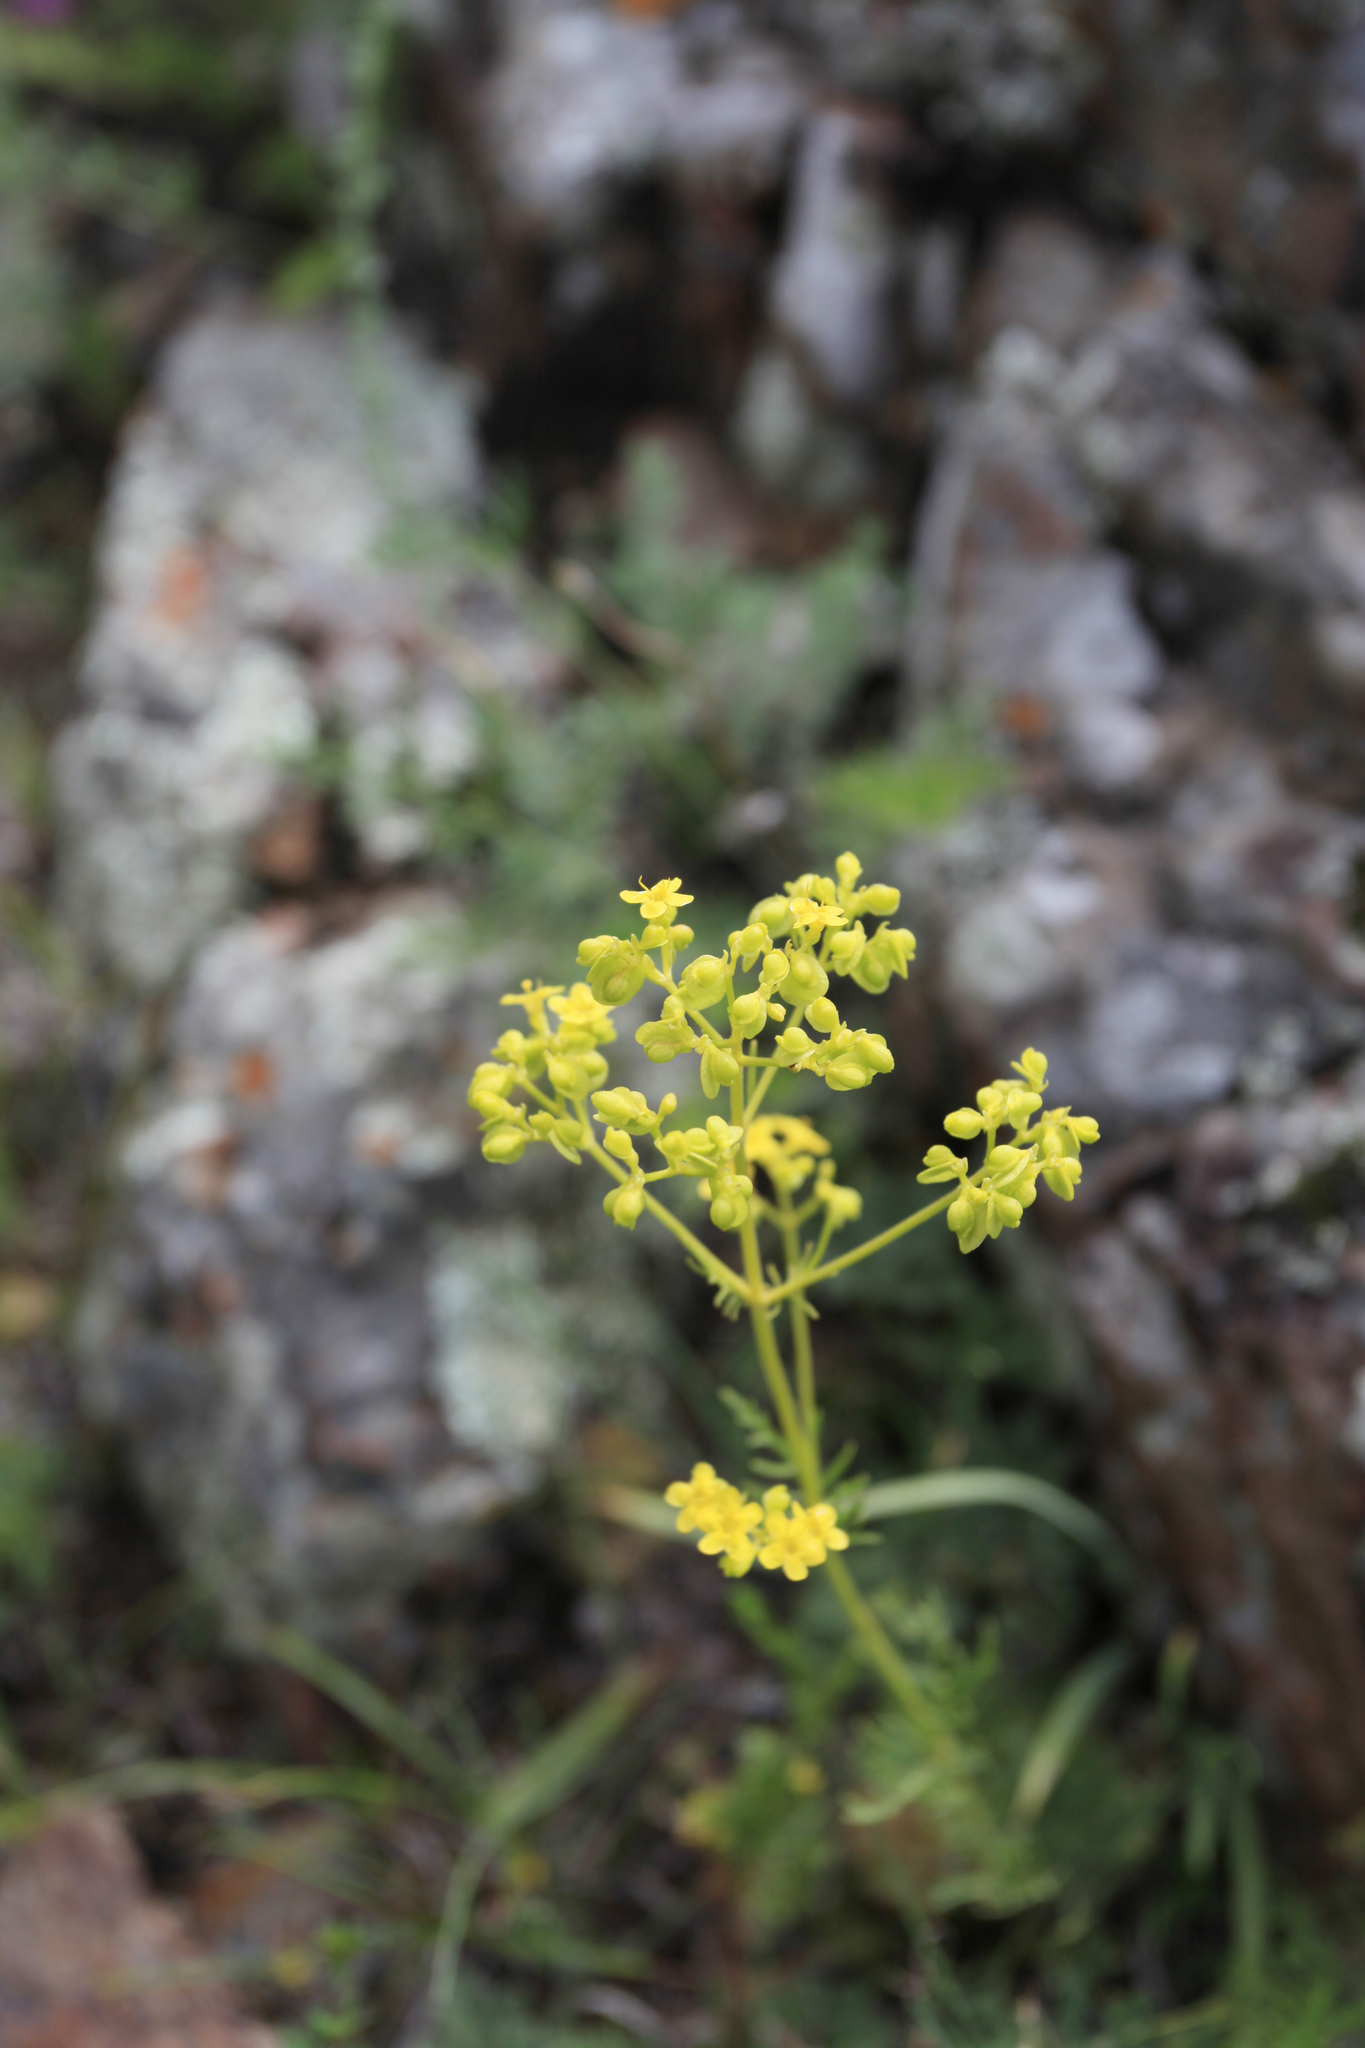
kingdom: Plantae
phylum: Tracheophyta
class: Magnoliopsida
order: Dipsacales
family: Caprifoliaceae
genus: Patrinia
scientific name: Patrinia intermedia
